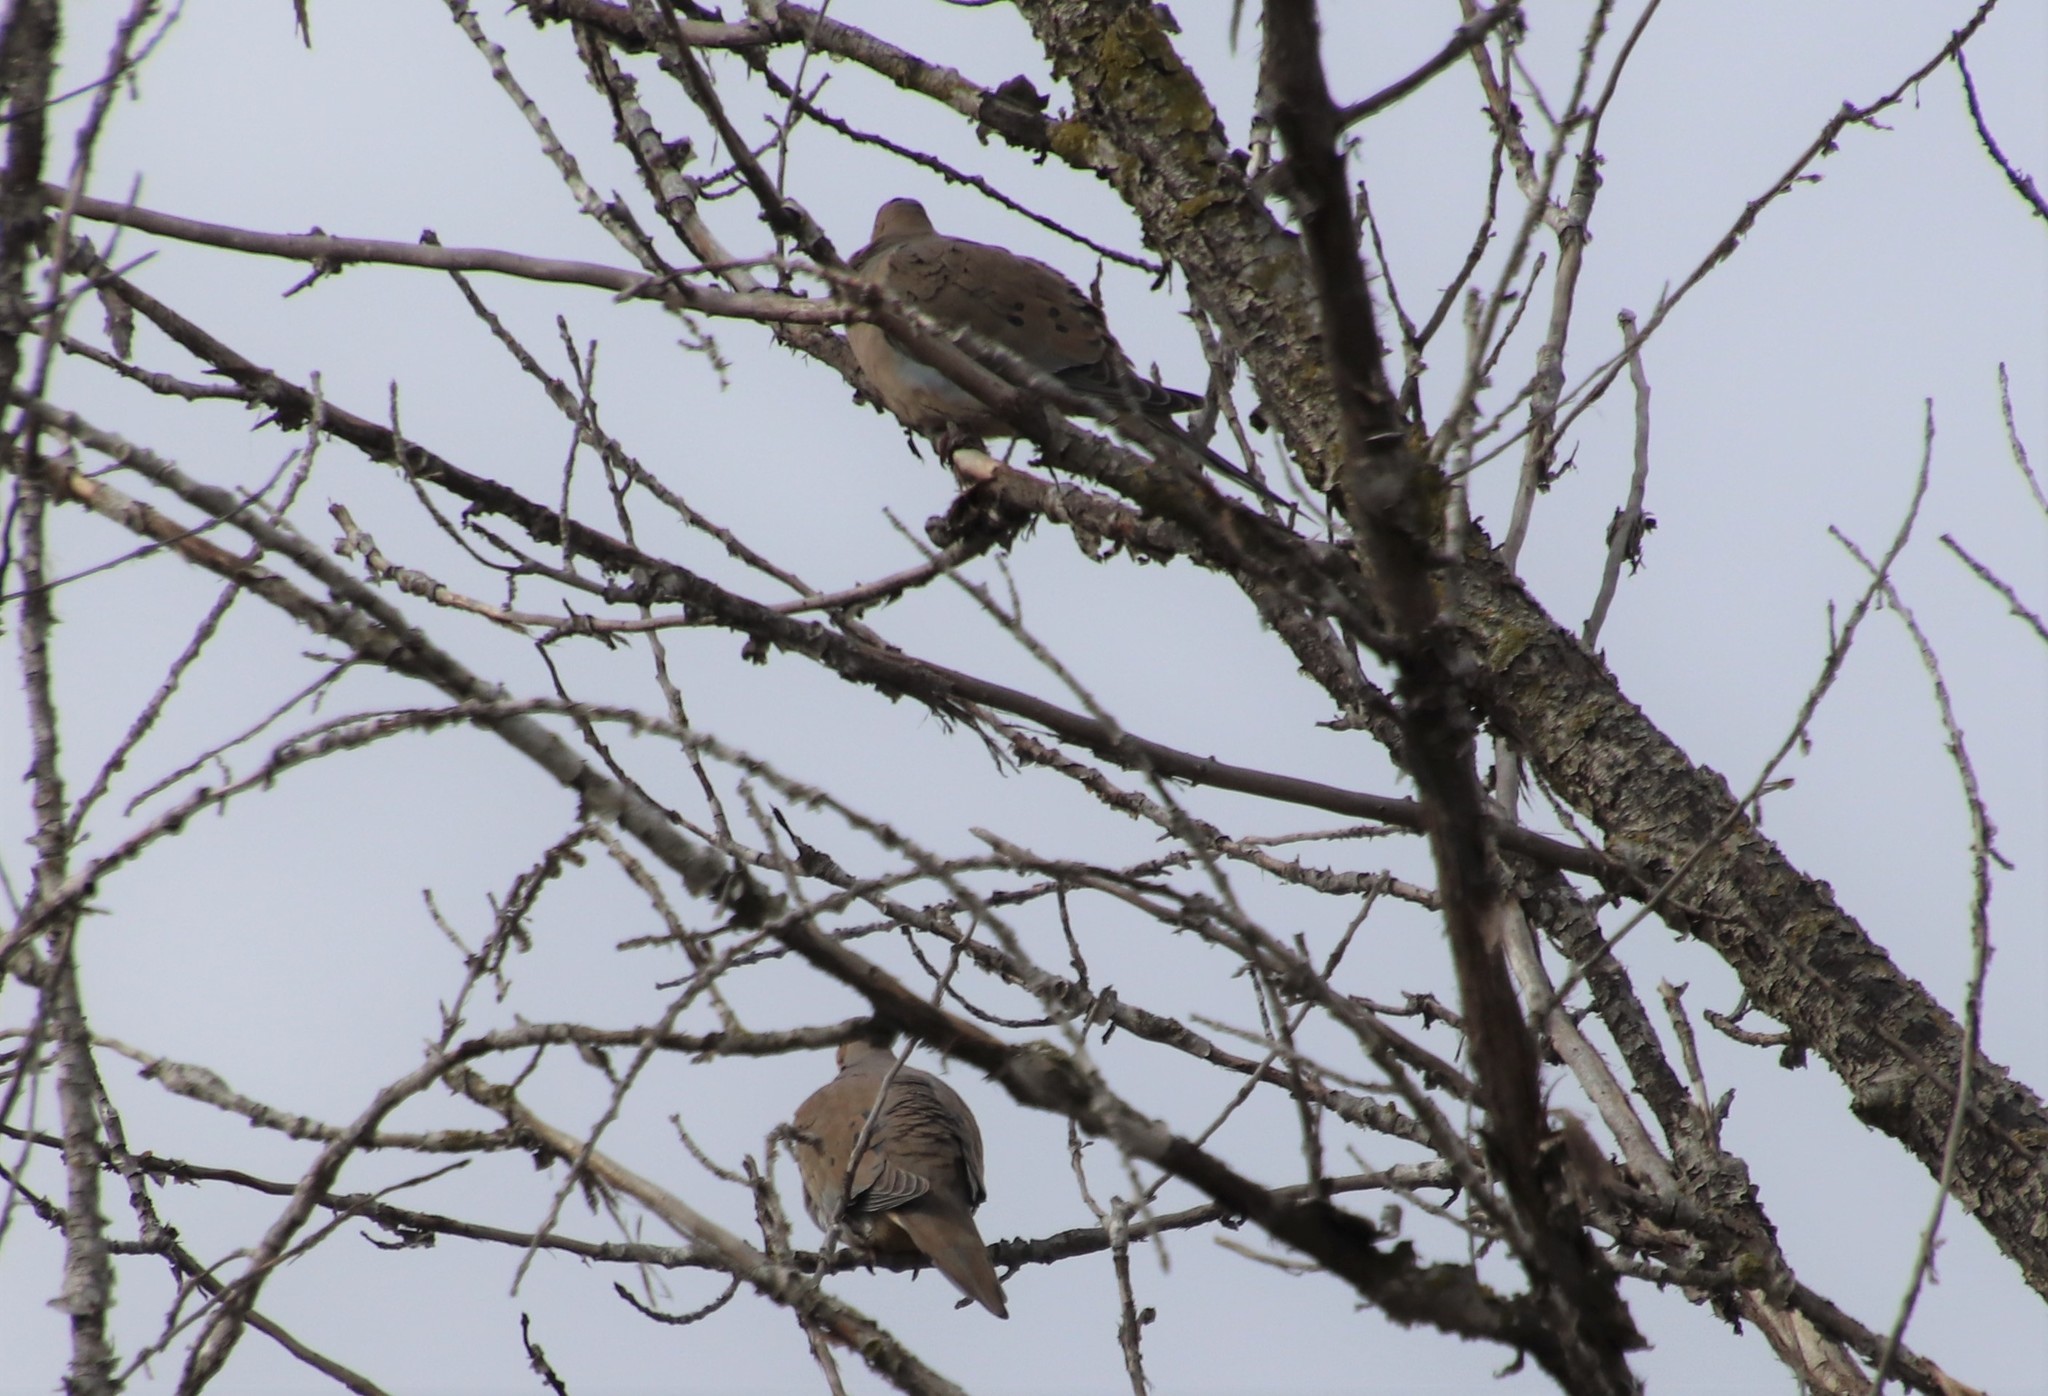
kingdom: Animalia
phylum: Chordata
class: Aves
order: Columbiformes
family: Columbidae
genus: Zenaida
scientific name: Zenaida macroura
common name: Mourning dove
